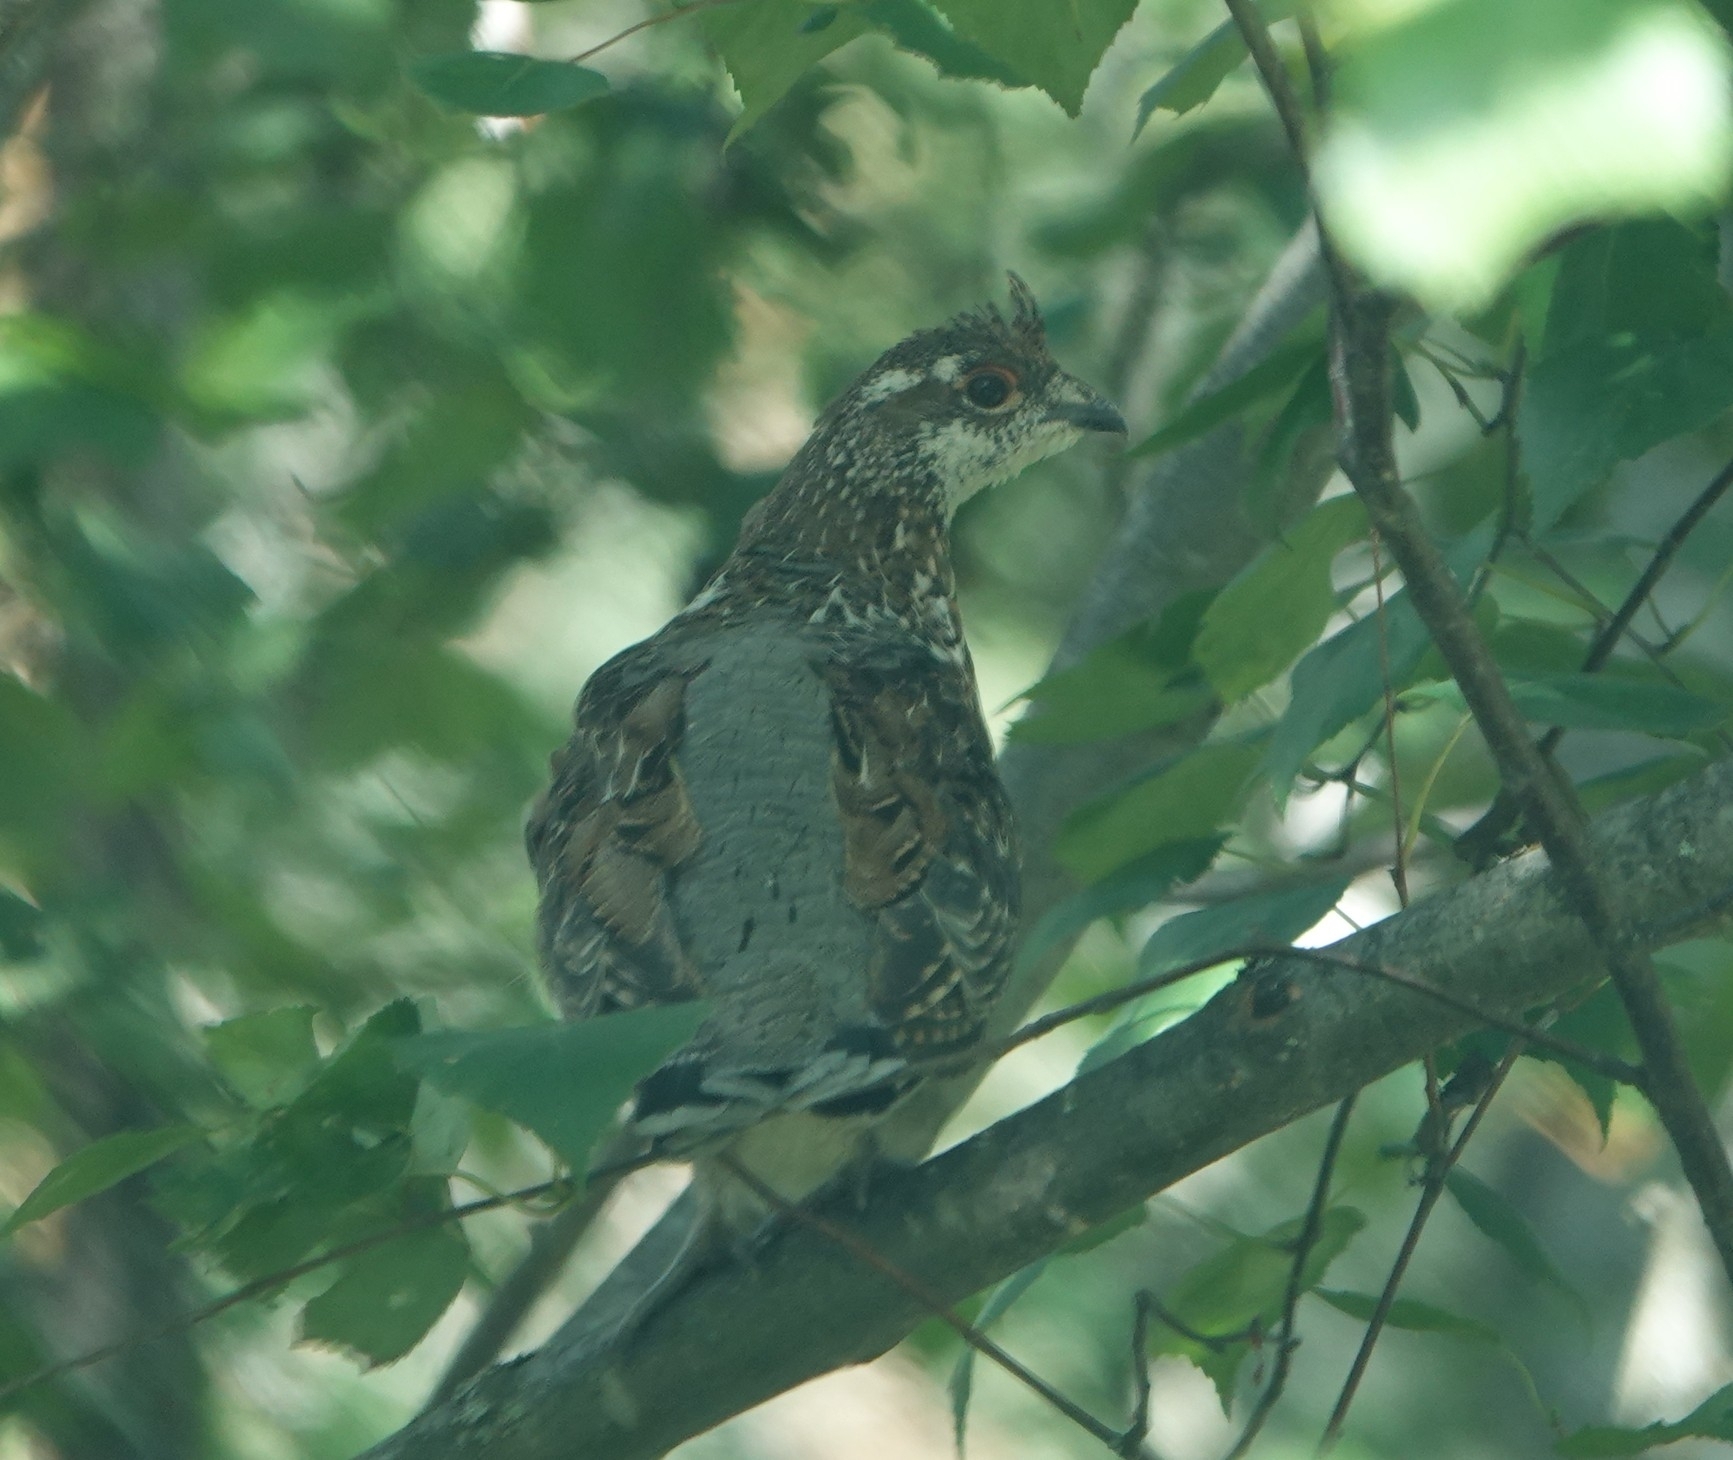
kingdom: Animalia
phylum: Chordata
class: Aves
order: Galliformes
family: Phasianidae
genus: Tetrastes
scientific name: Tetrastes bonasia
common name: Hazel grouse
